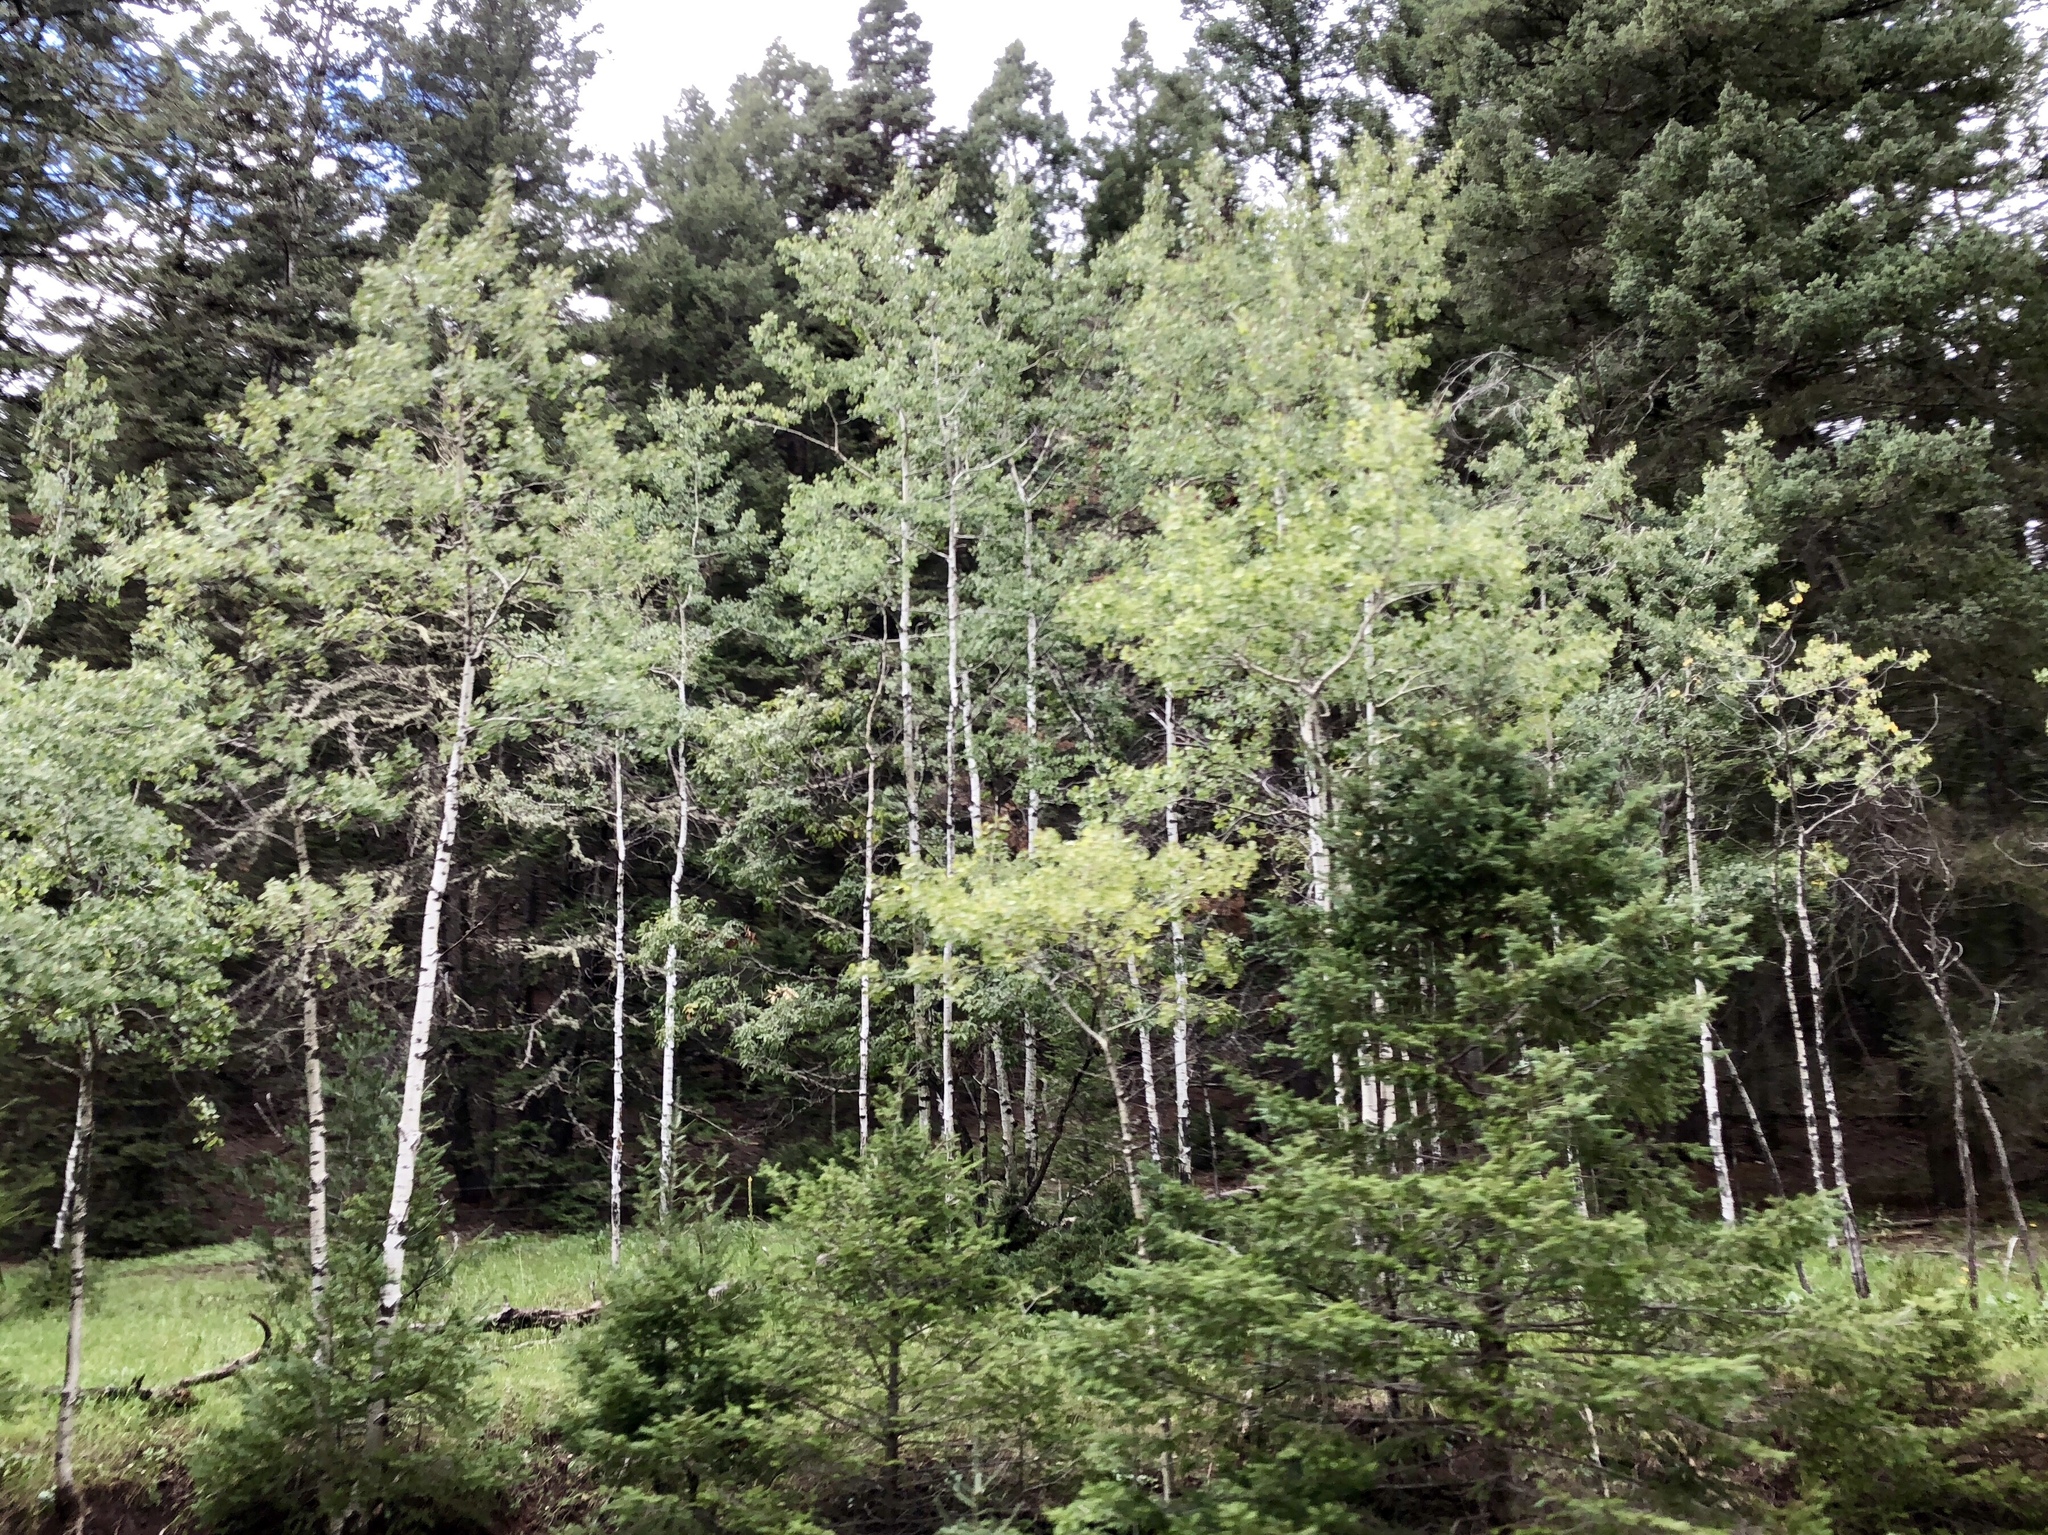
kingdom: Plantae
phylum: Tracheophyta
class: Magnoliopsida
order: Malpighiales
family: Salicaceae
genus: Populus
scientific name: Populus tremuloides
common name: Quaking aspen
